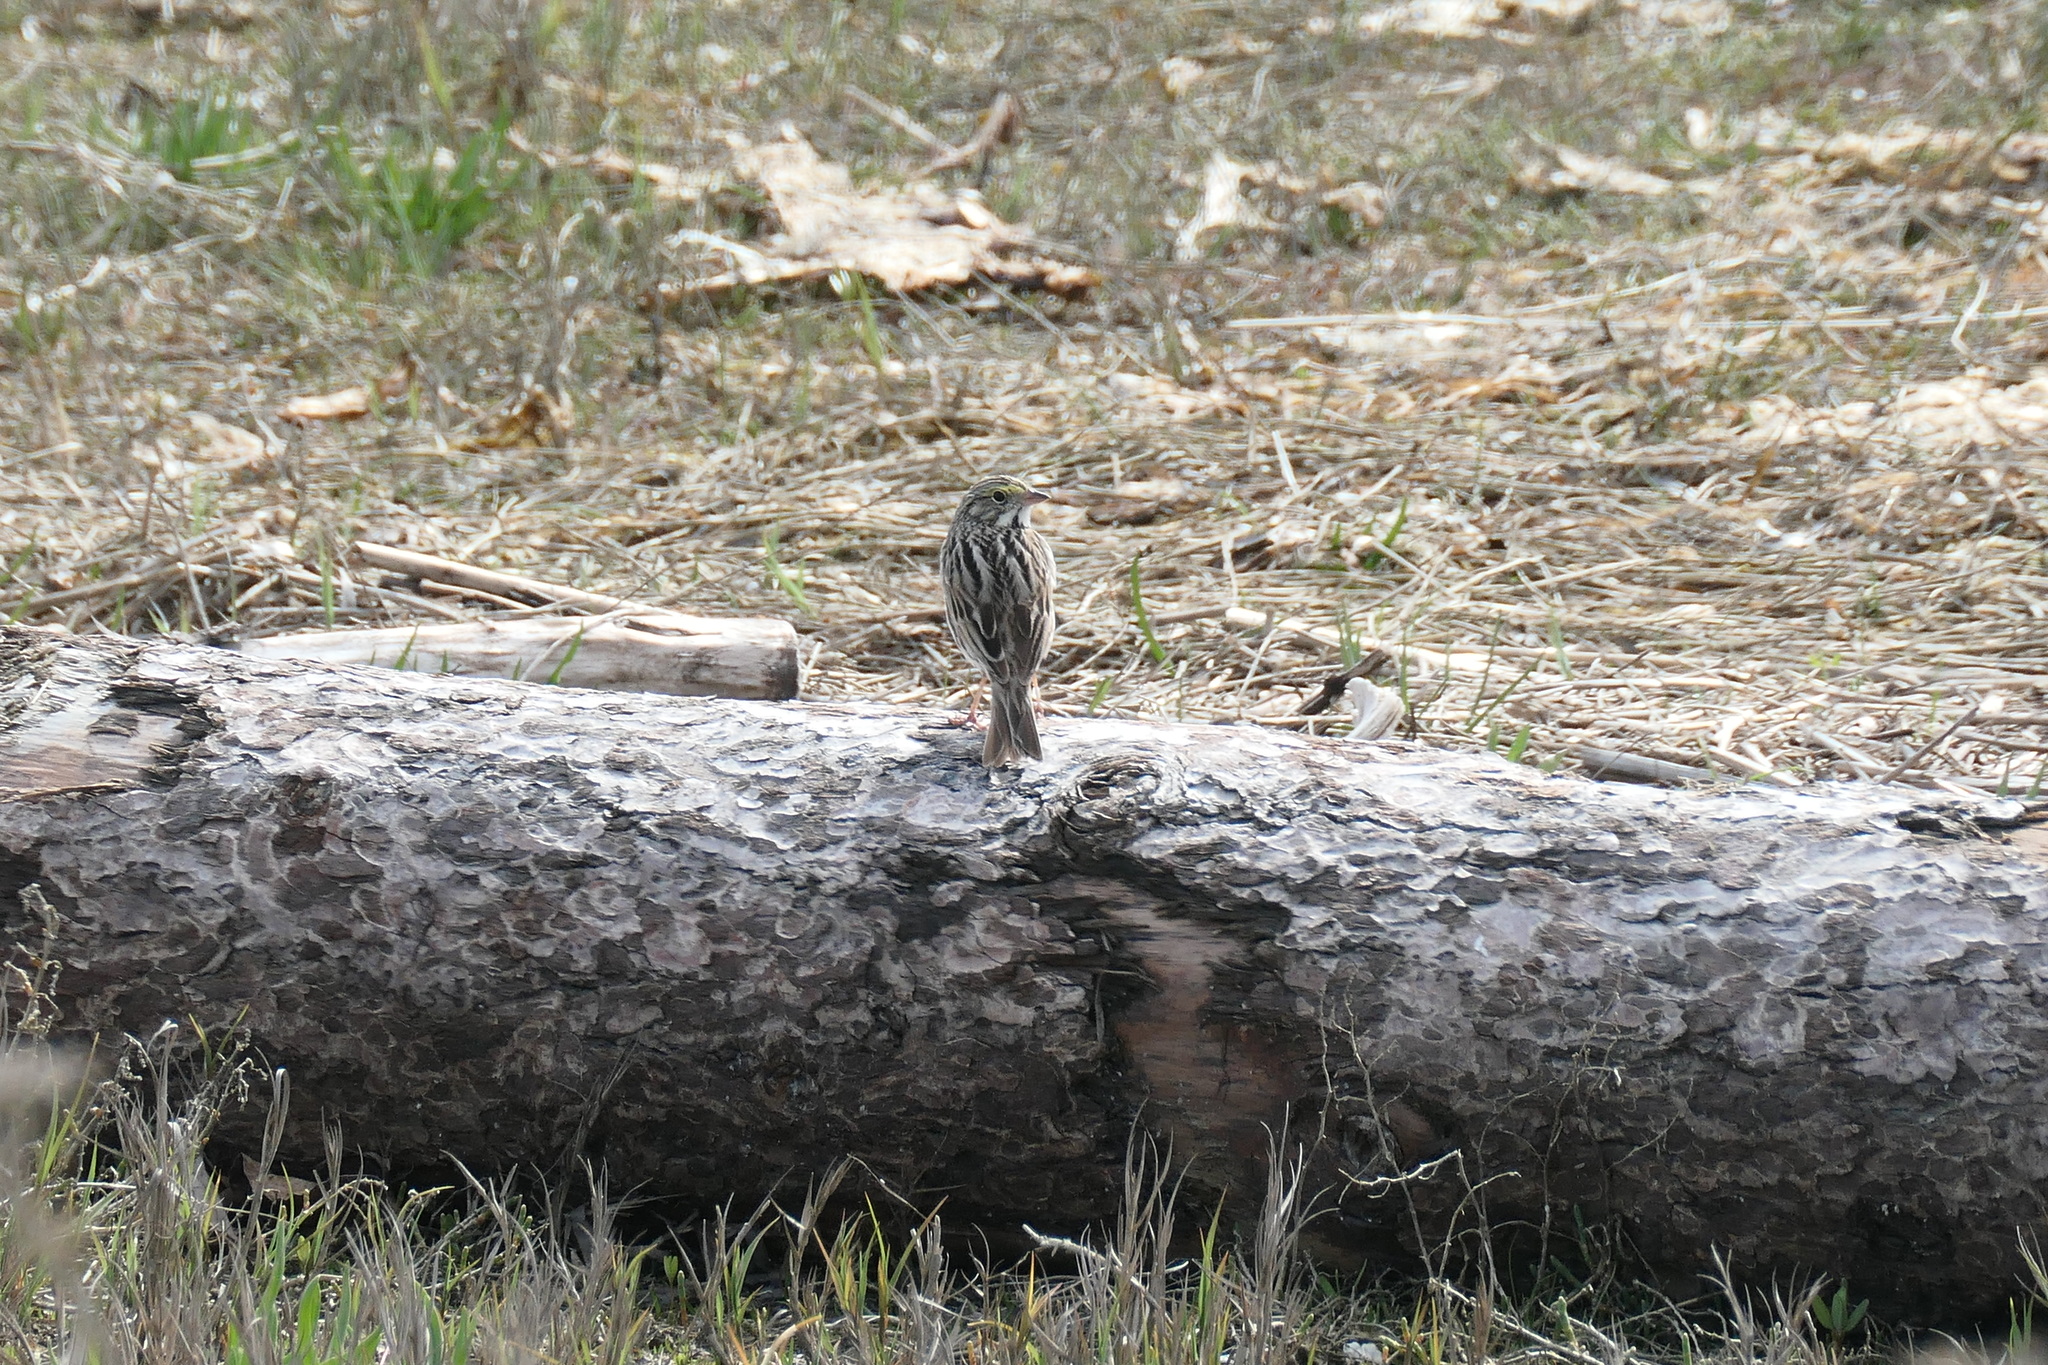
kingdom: Animalia
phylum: Chordata
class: Aves
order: Passeriformes
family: Passerellidae
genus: Passerculus
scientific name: Passerculus sandwichensis
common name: Savannah sparrow
